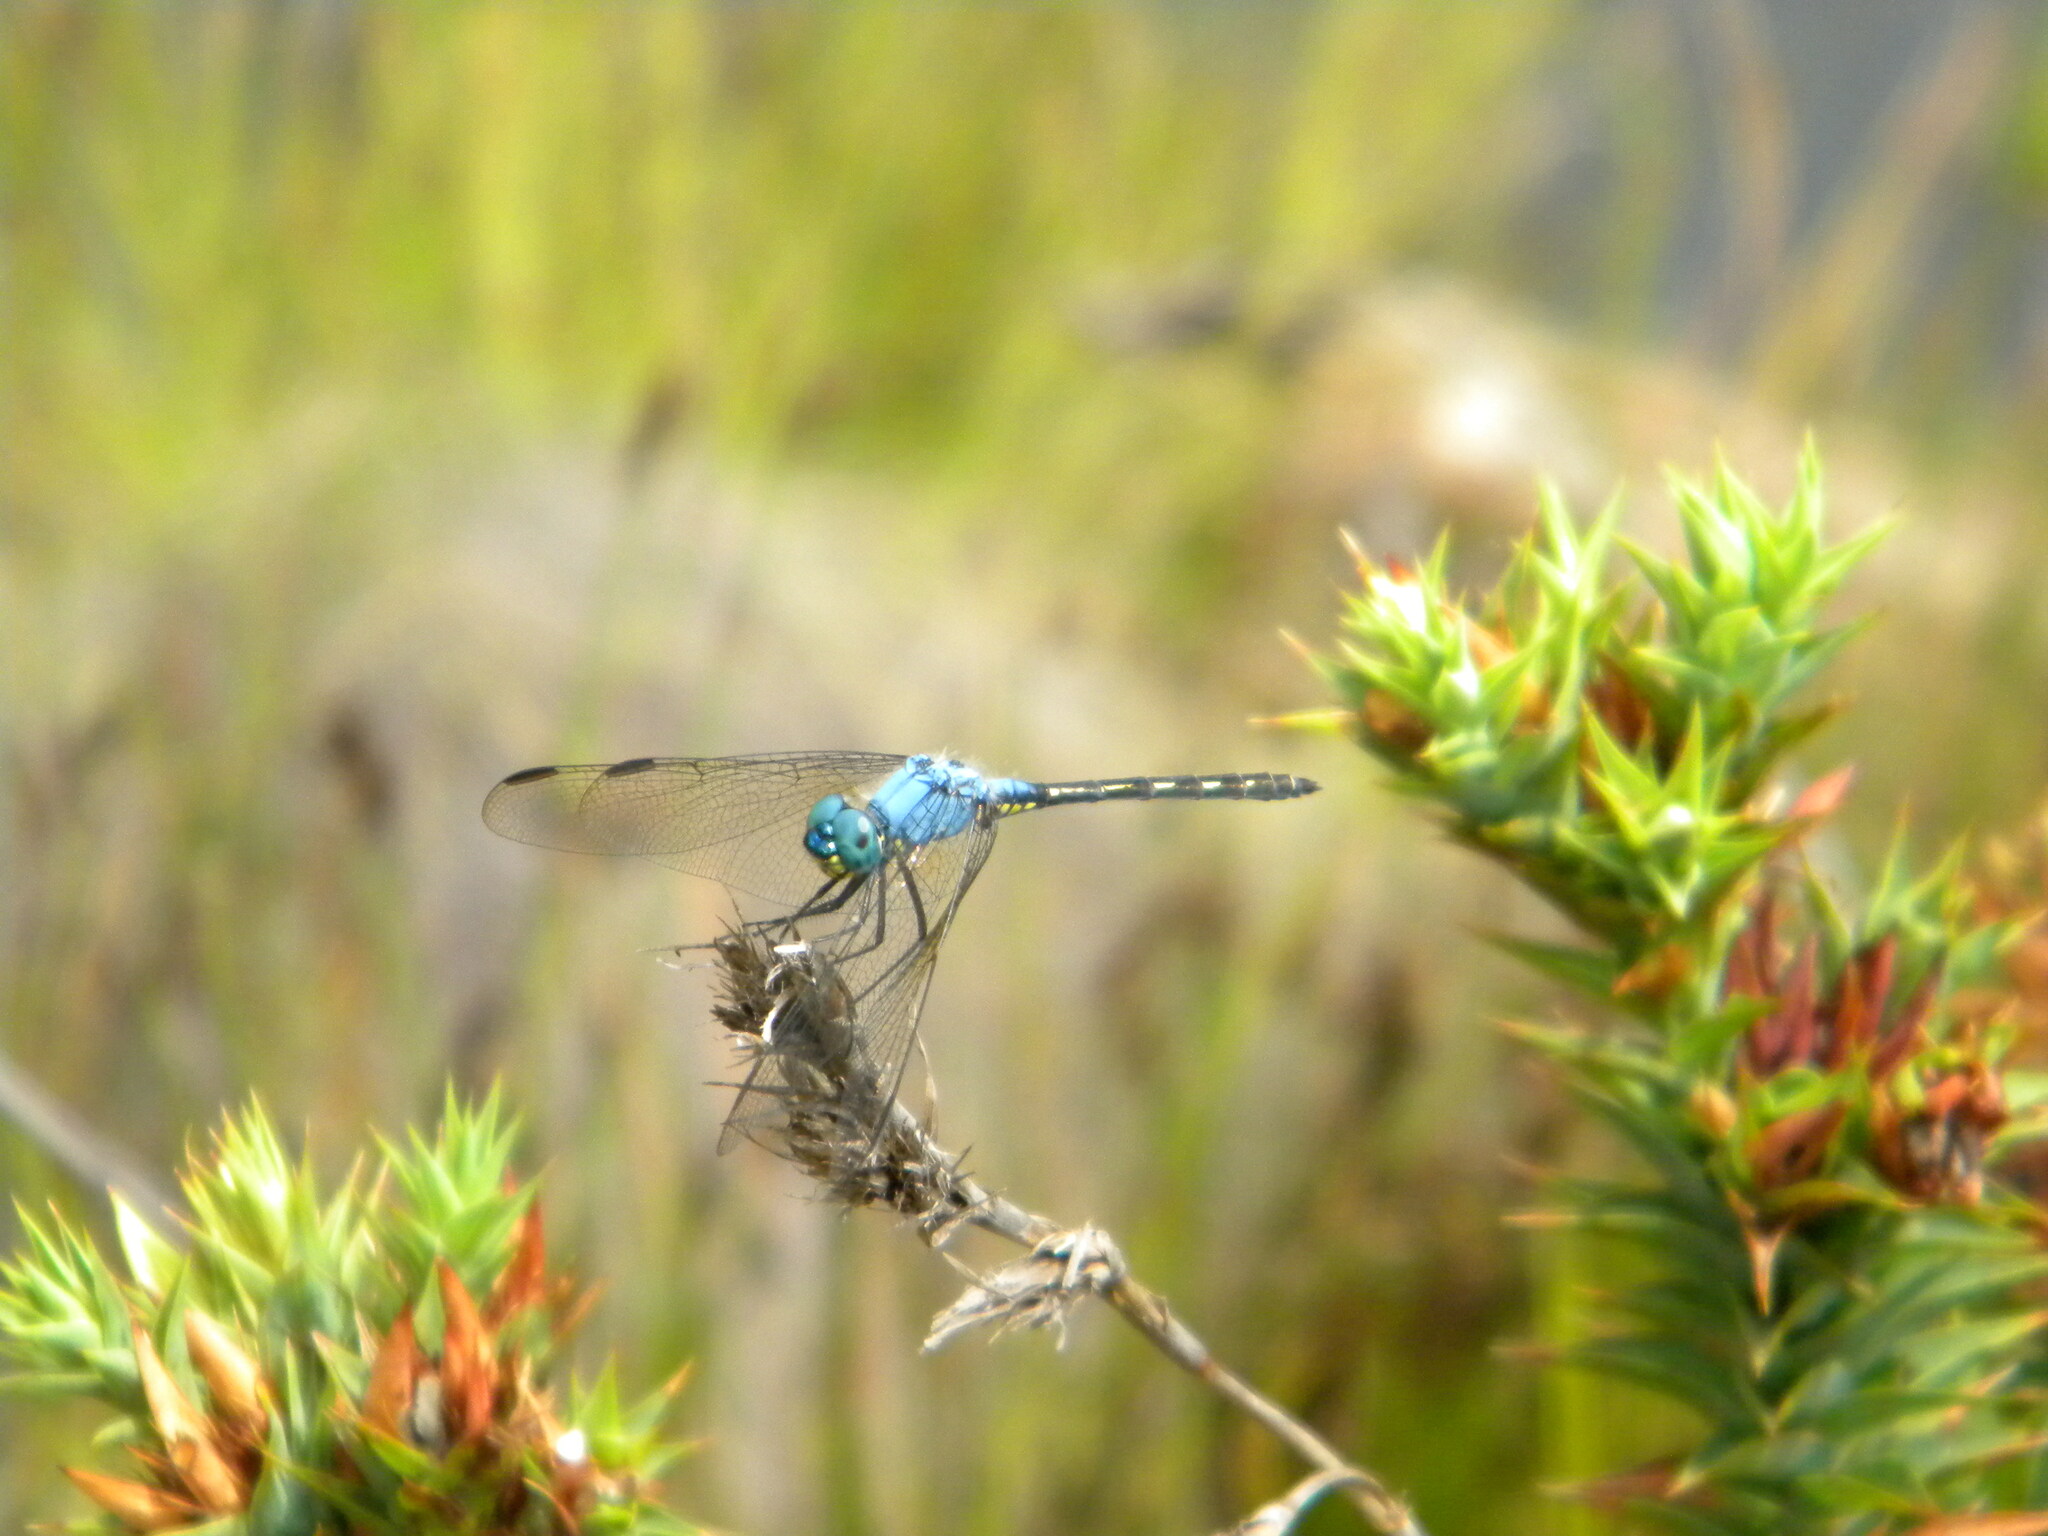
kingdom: Animalia
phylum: Arthropoda
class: Insecta
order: Odonata
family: Libellulidae
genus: Trithemis
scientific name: Trithemis stictica
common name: Jaunty dropwing
